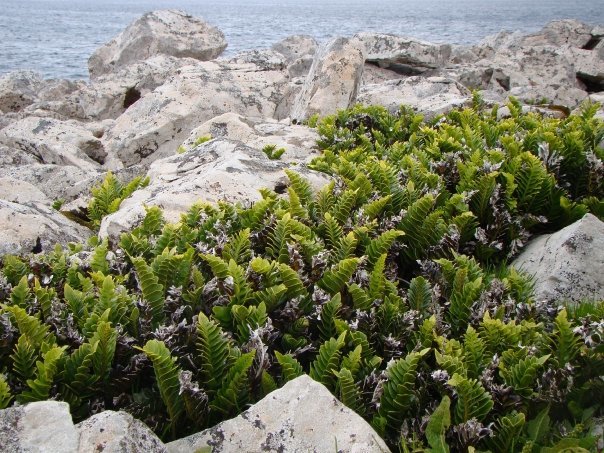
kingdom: Plantae
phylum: Tracheophyta
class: Polypodiopsida
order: Polypodiales
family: Aspleniaceae
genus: Asplenium
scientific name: Asplenium obtusatum
